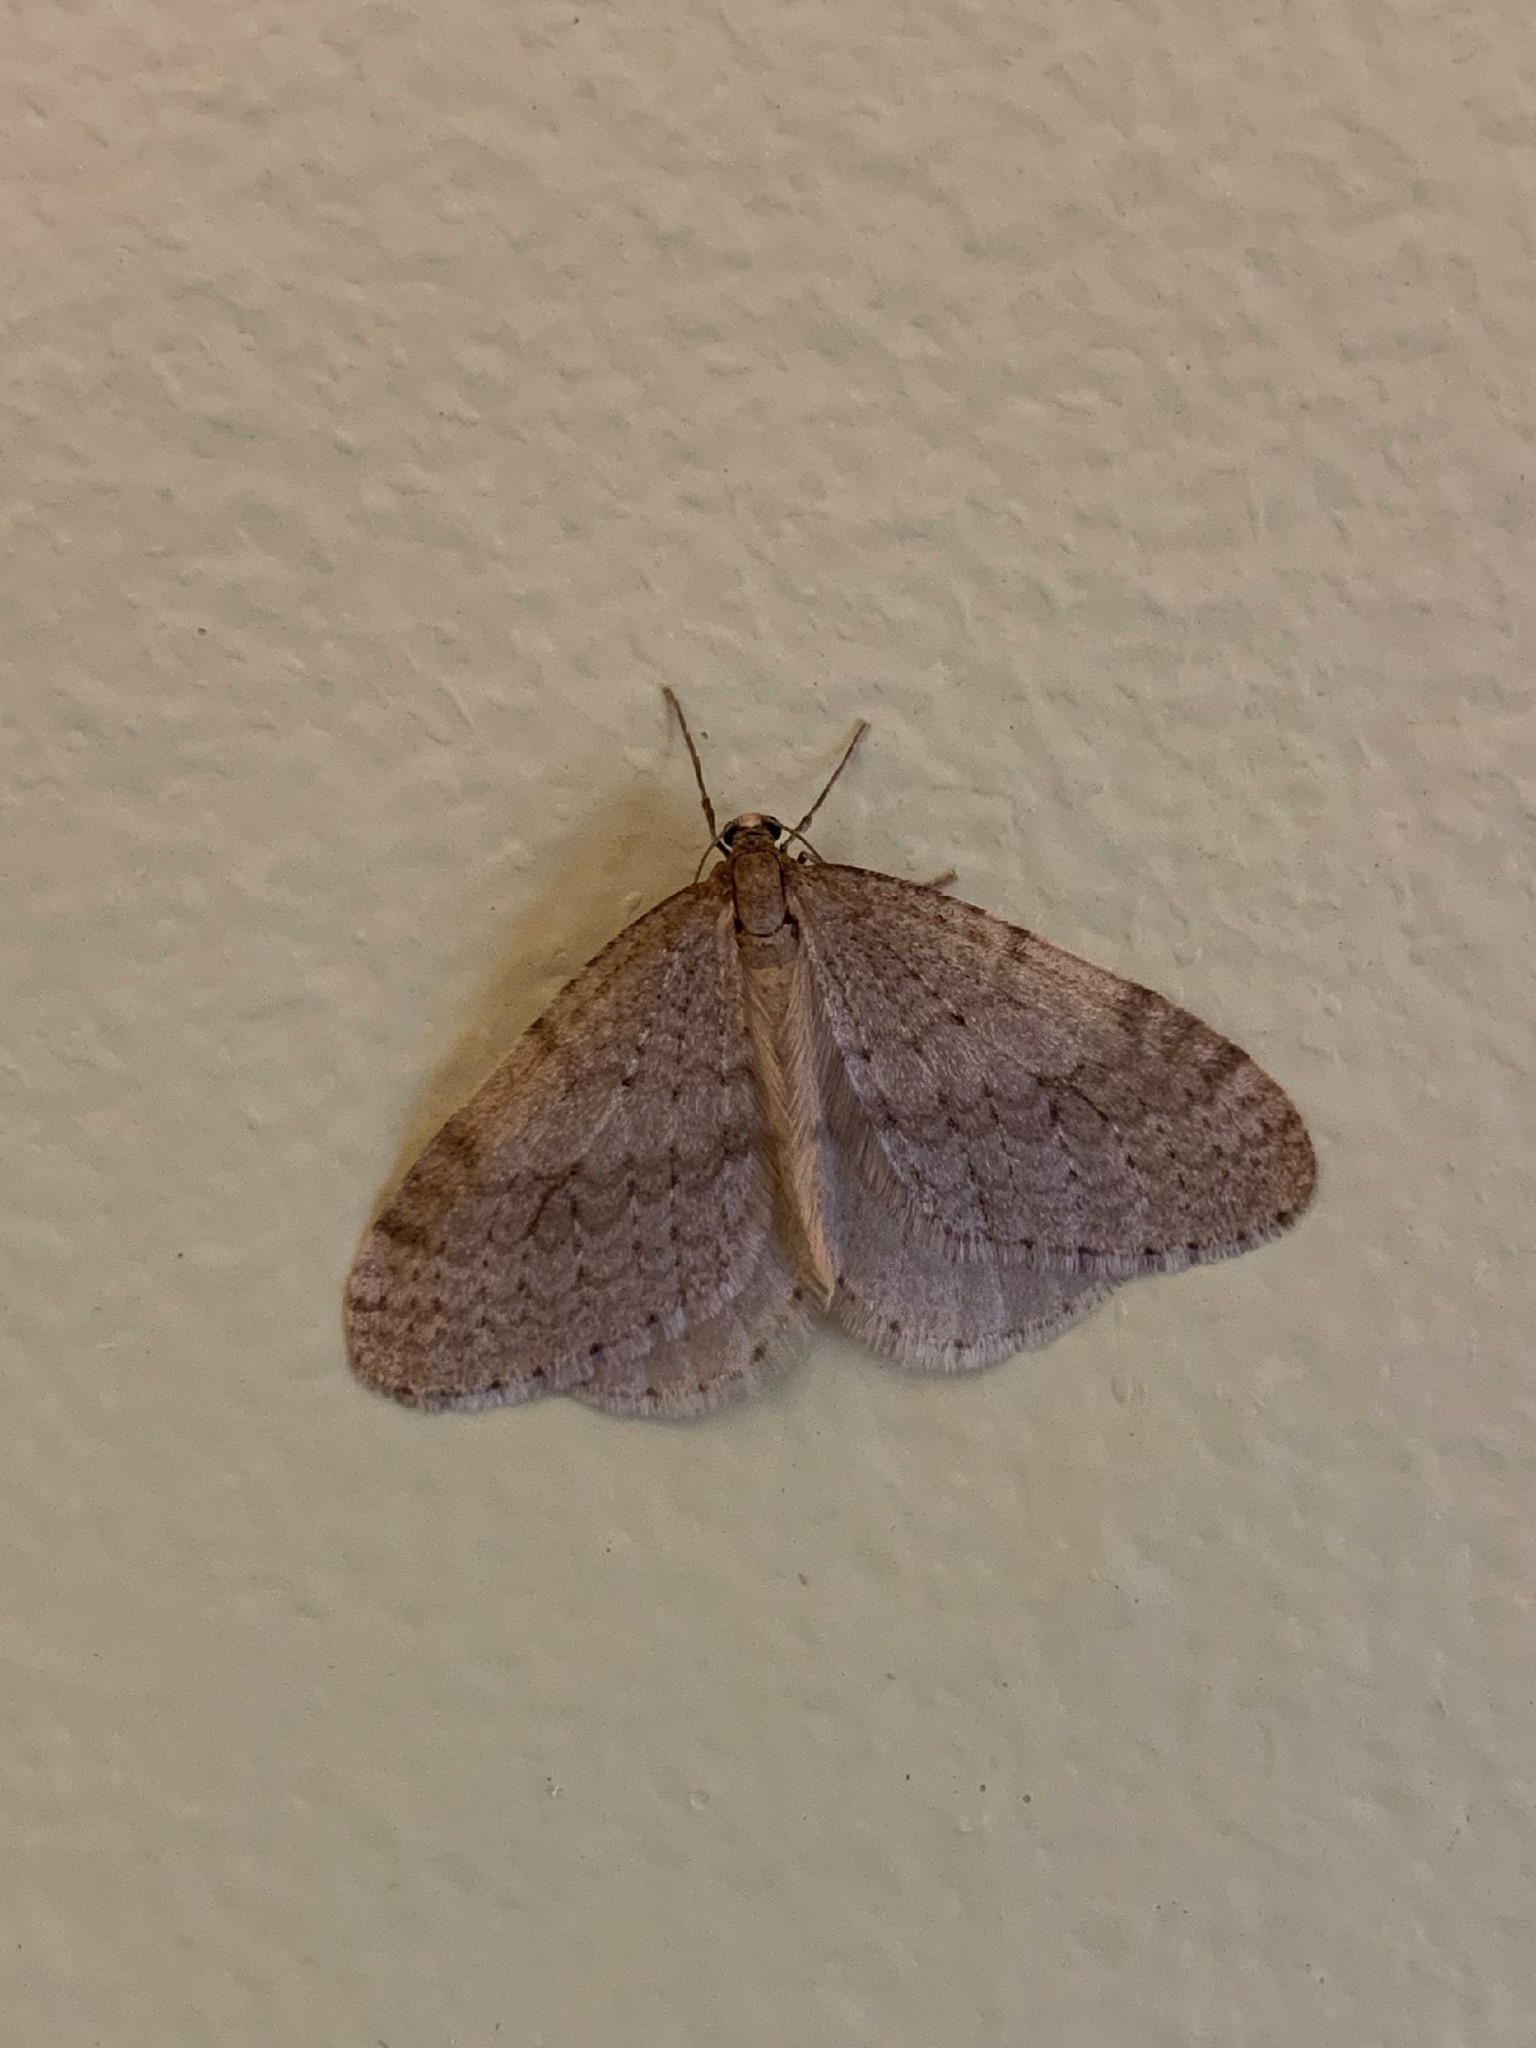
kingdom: Animalia
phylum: Arthropoda
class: Insecta
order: Lepidoptera
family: Geometridae
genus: Operophtera
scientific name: Operophtera bruceata
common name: Bruce spanworm
